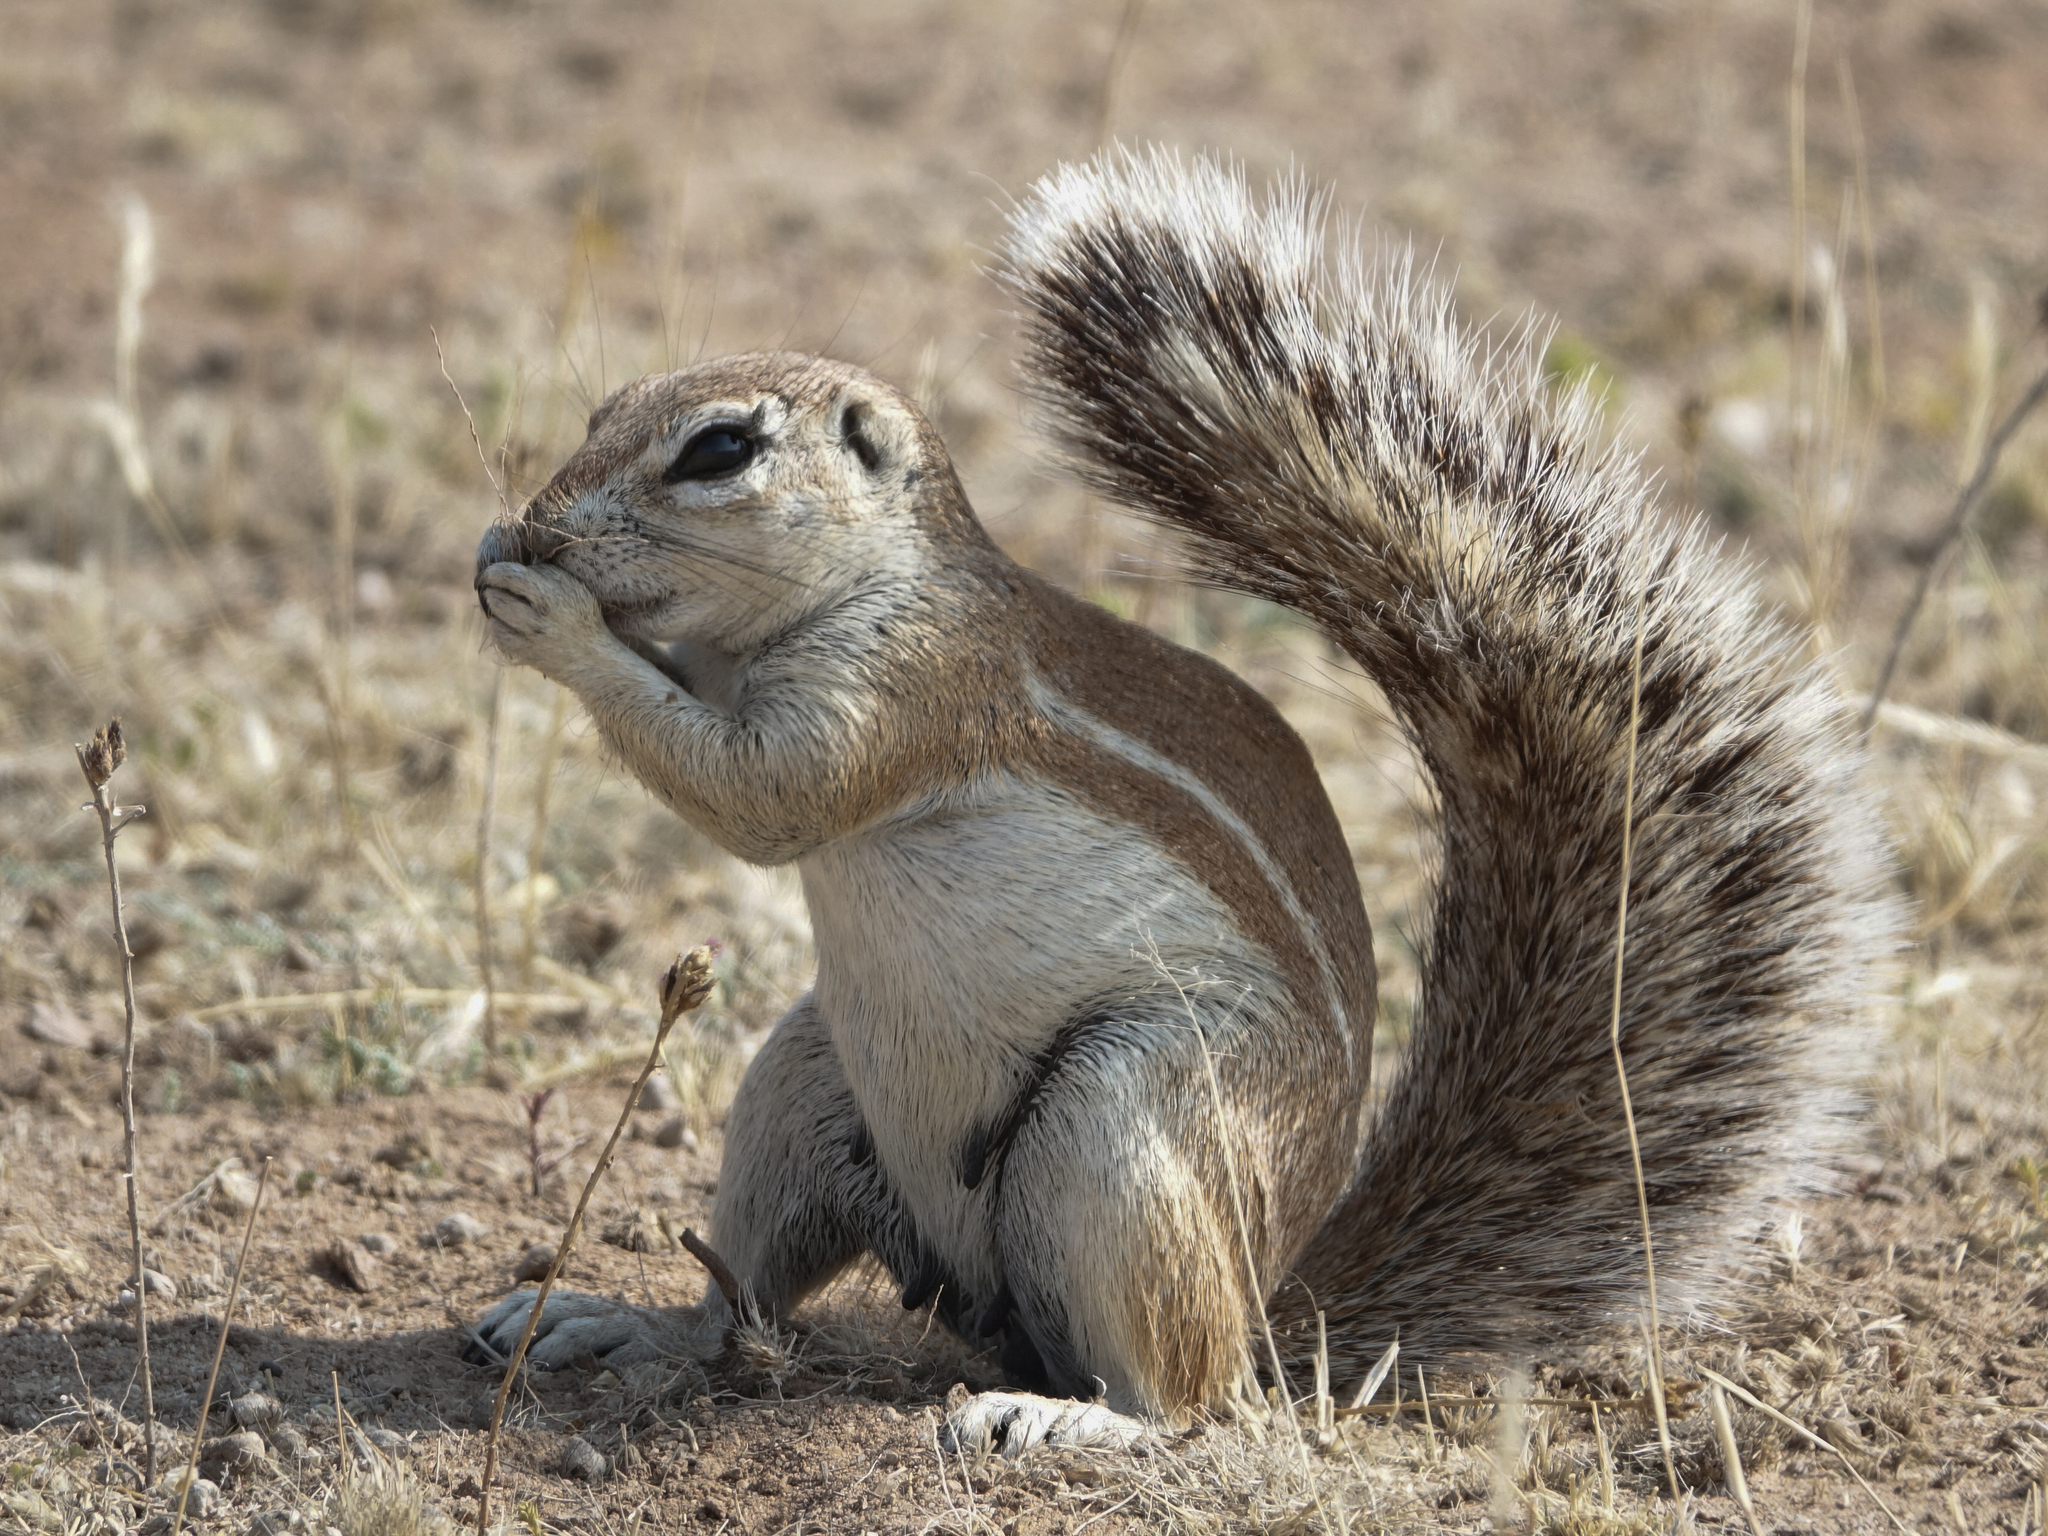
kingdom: Animalia
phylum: Chordata
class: Mammalia
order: Rodentia
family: Sciuridae
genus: Xerus
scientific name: Xerus inauris
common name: South african ground squirrel
